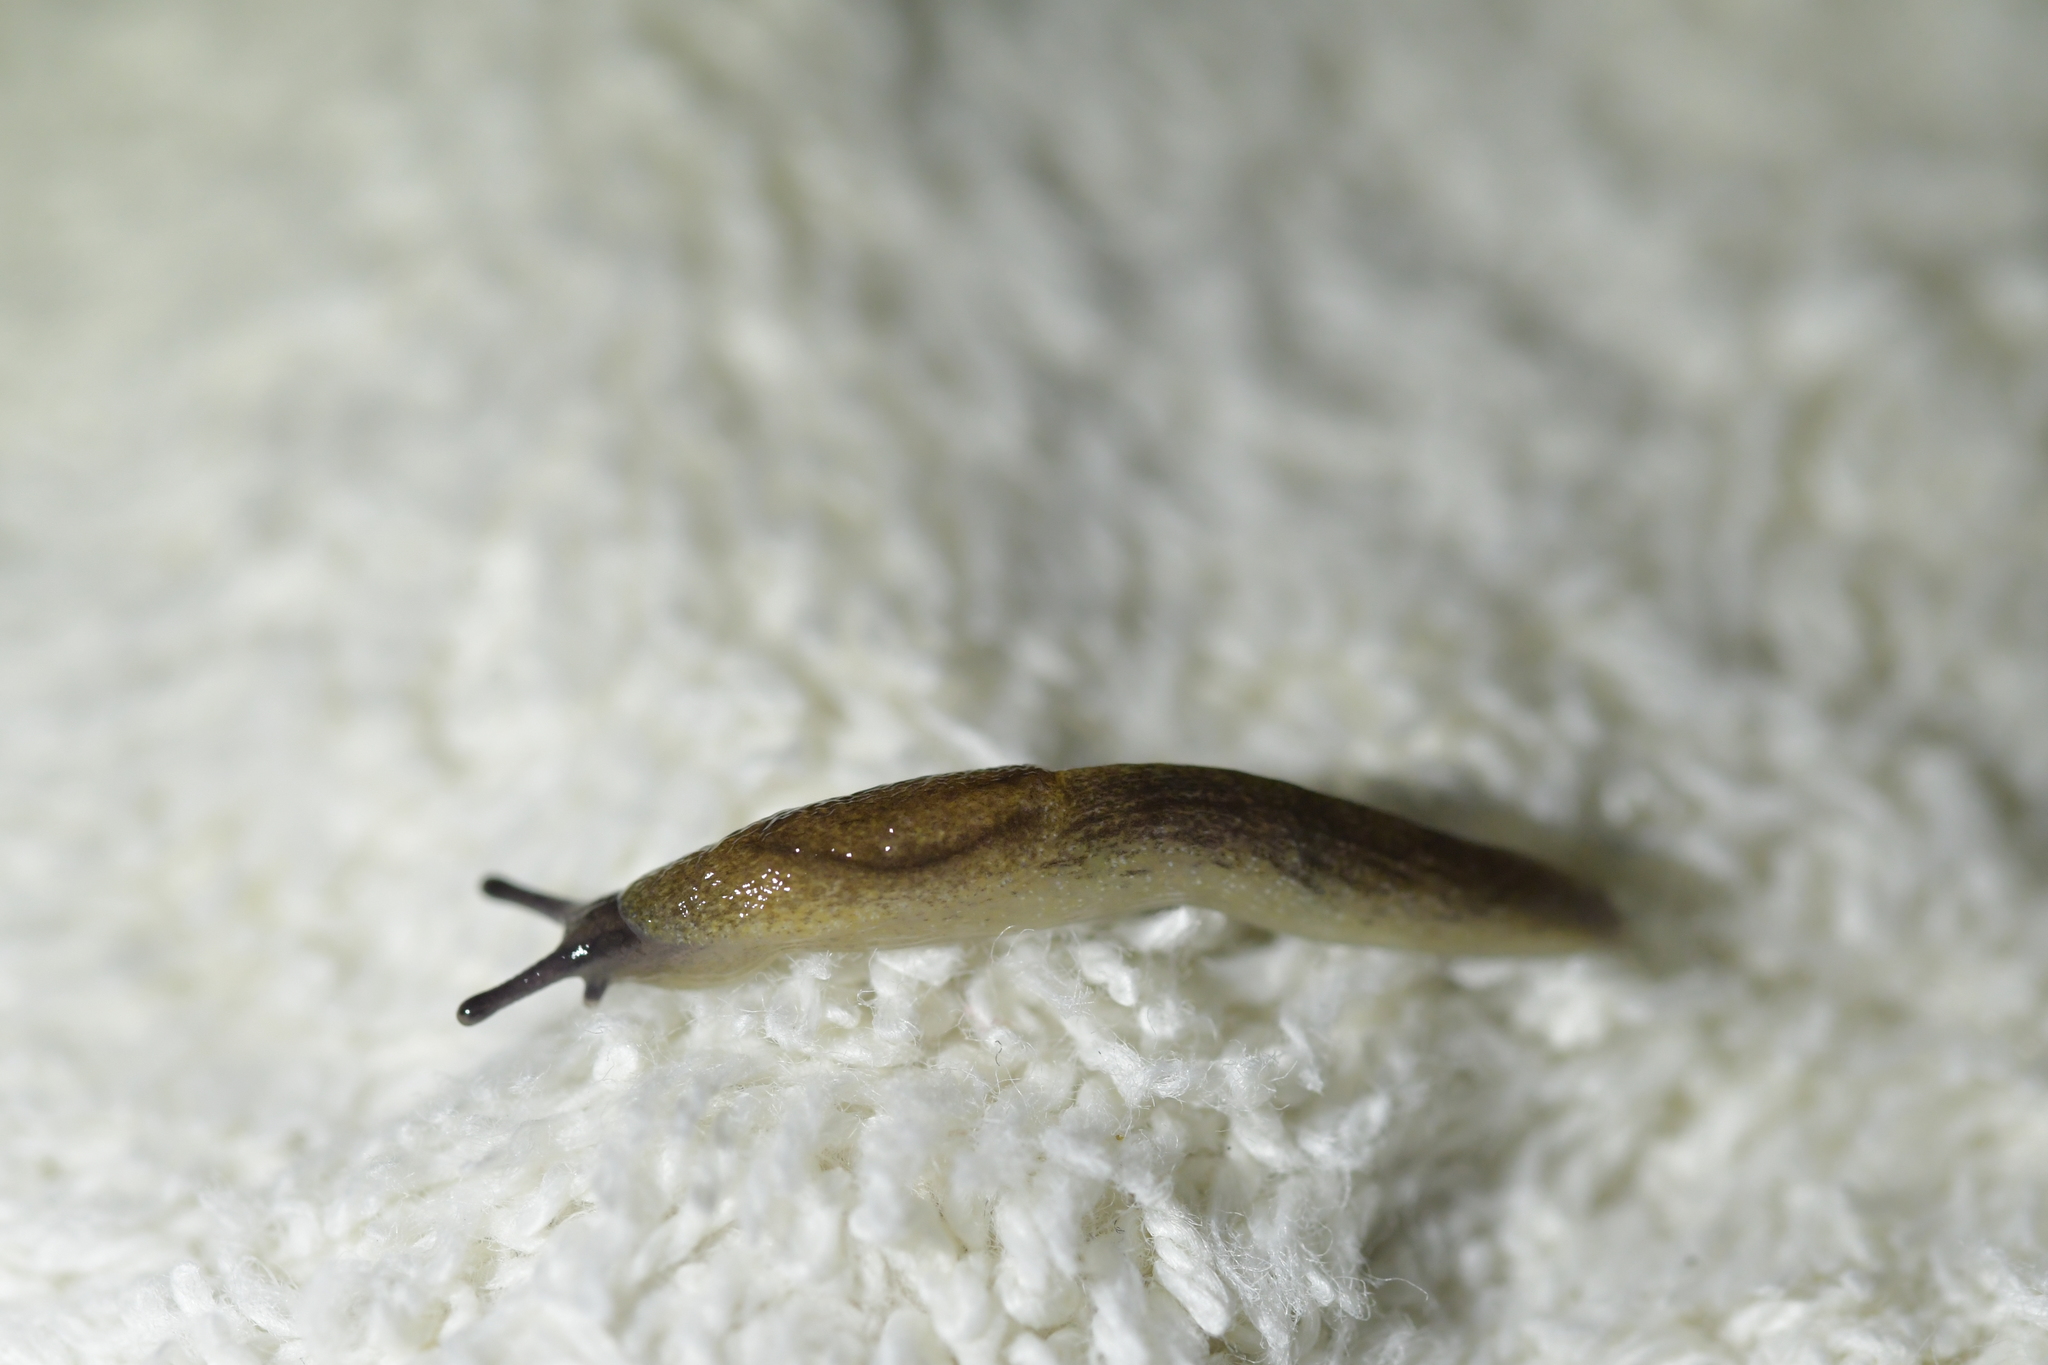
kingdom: Animalia
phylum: Mollusca
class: Gastropoda
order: Stylommatophora
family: Milacidae
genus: Milax
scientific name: Milax gagates
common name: Greenhouse slug
